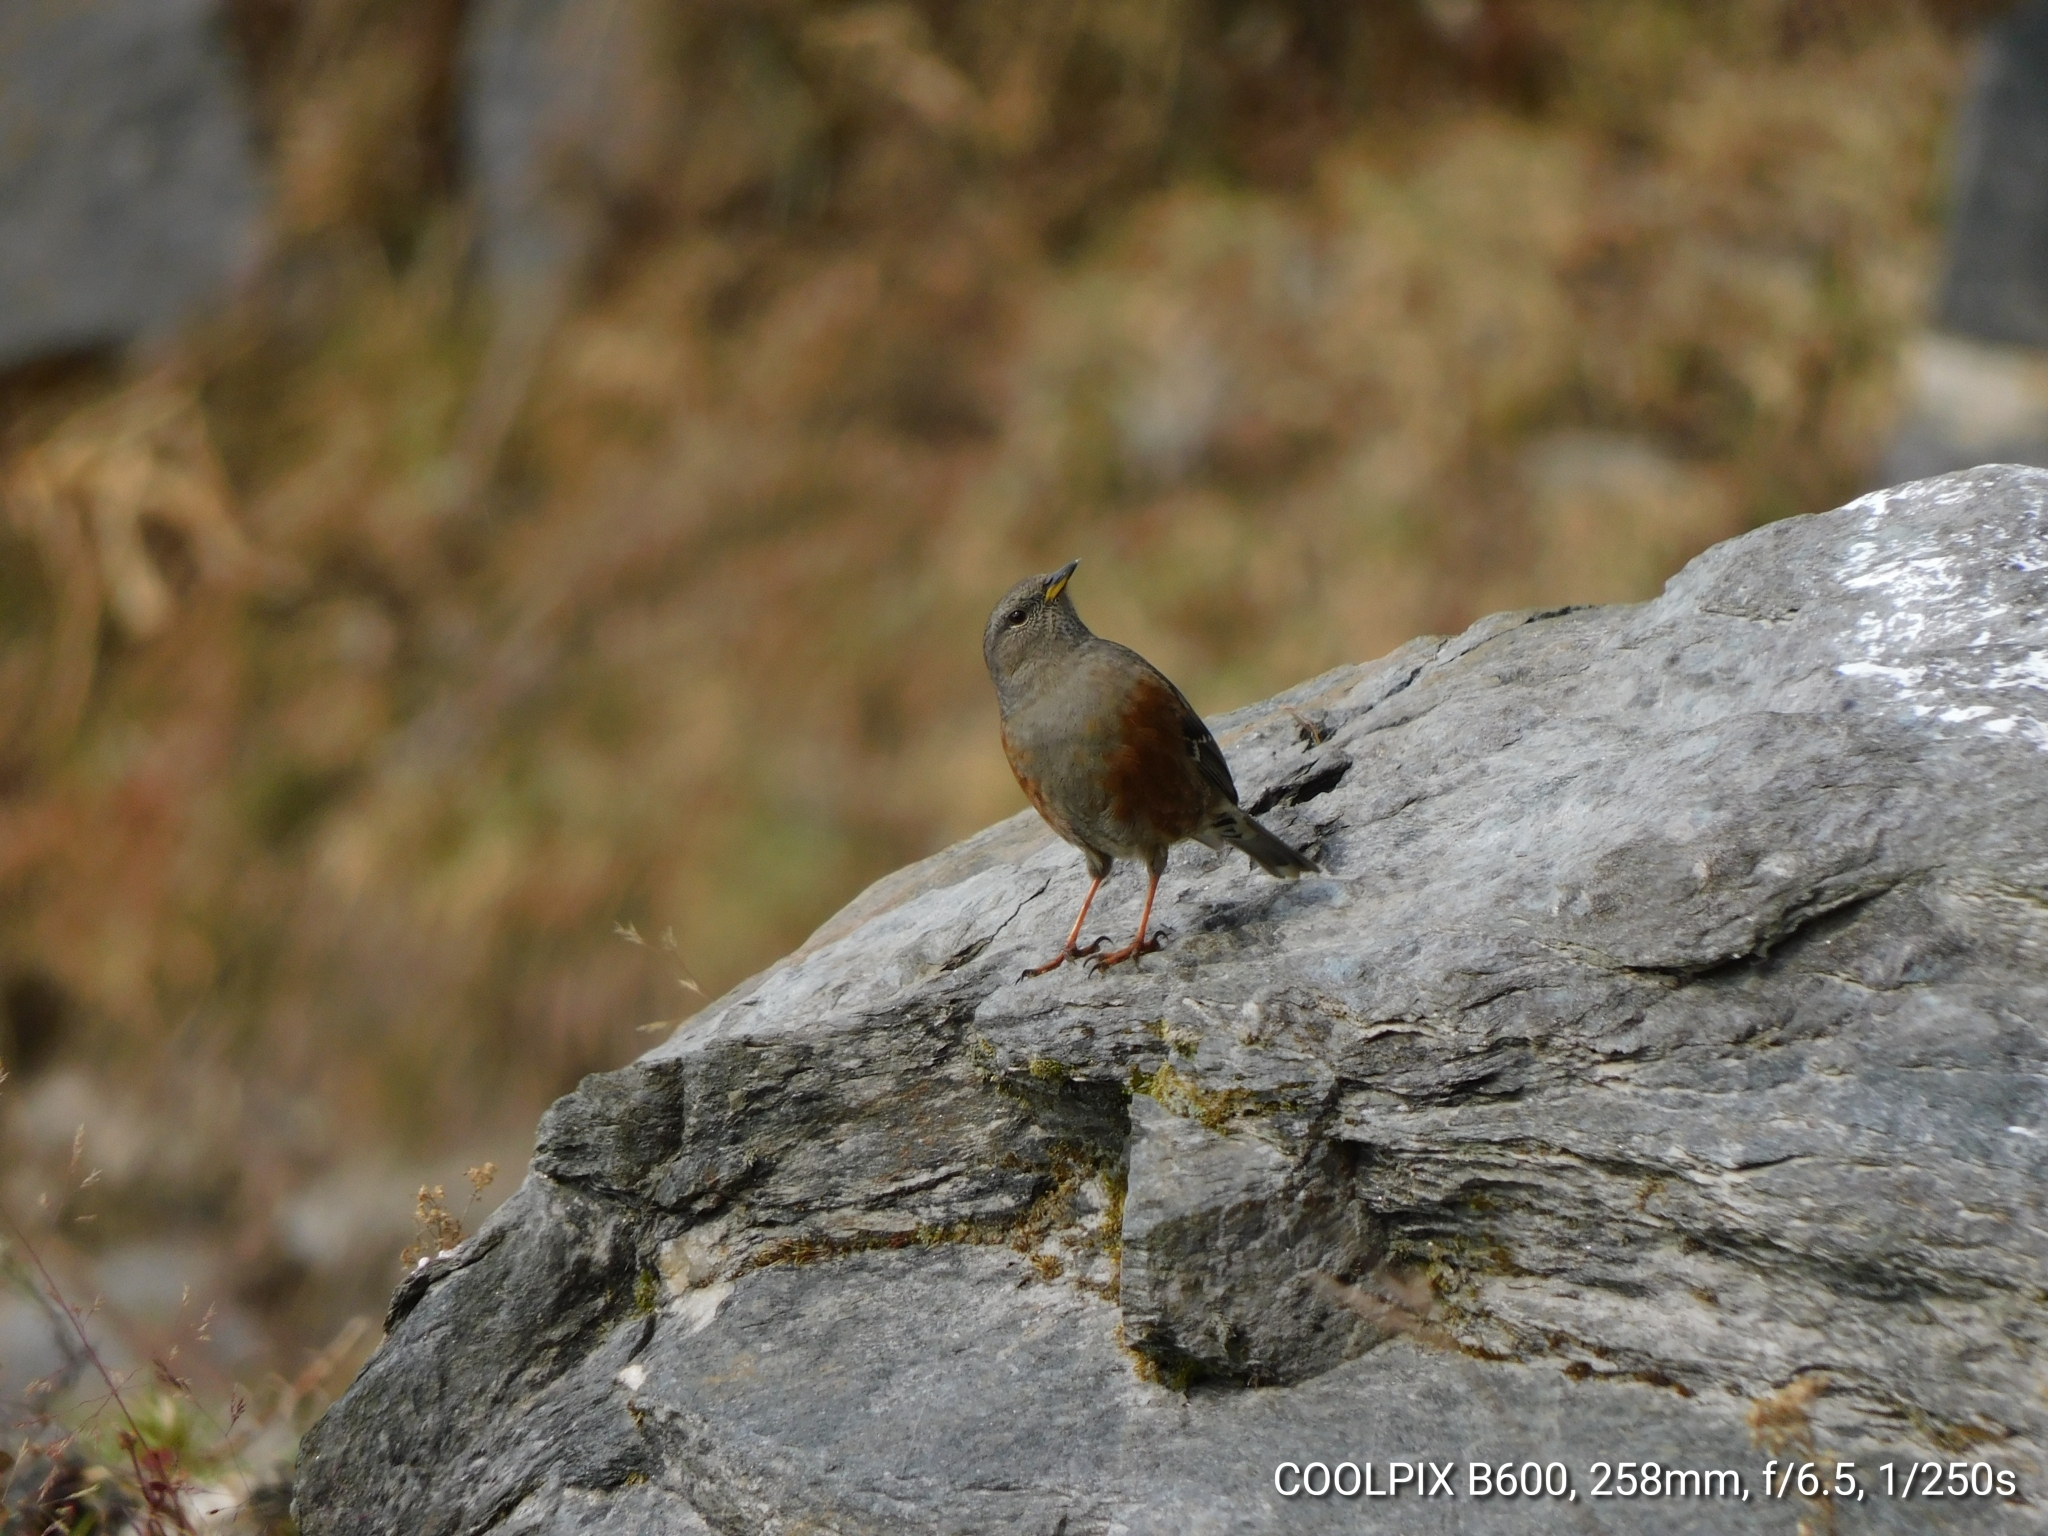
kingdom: Animalia
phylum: Chordata
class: Aves
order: Passeriformes
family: Prunellidae
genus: Prunella
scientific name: Prunella collaris
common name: Alpine accentor
